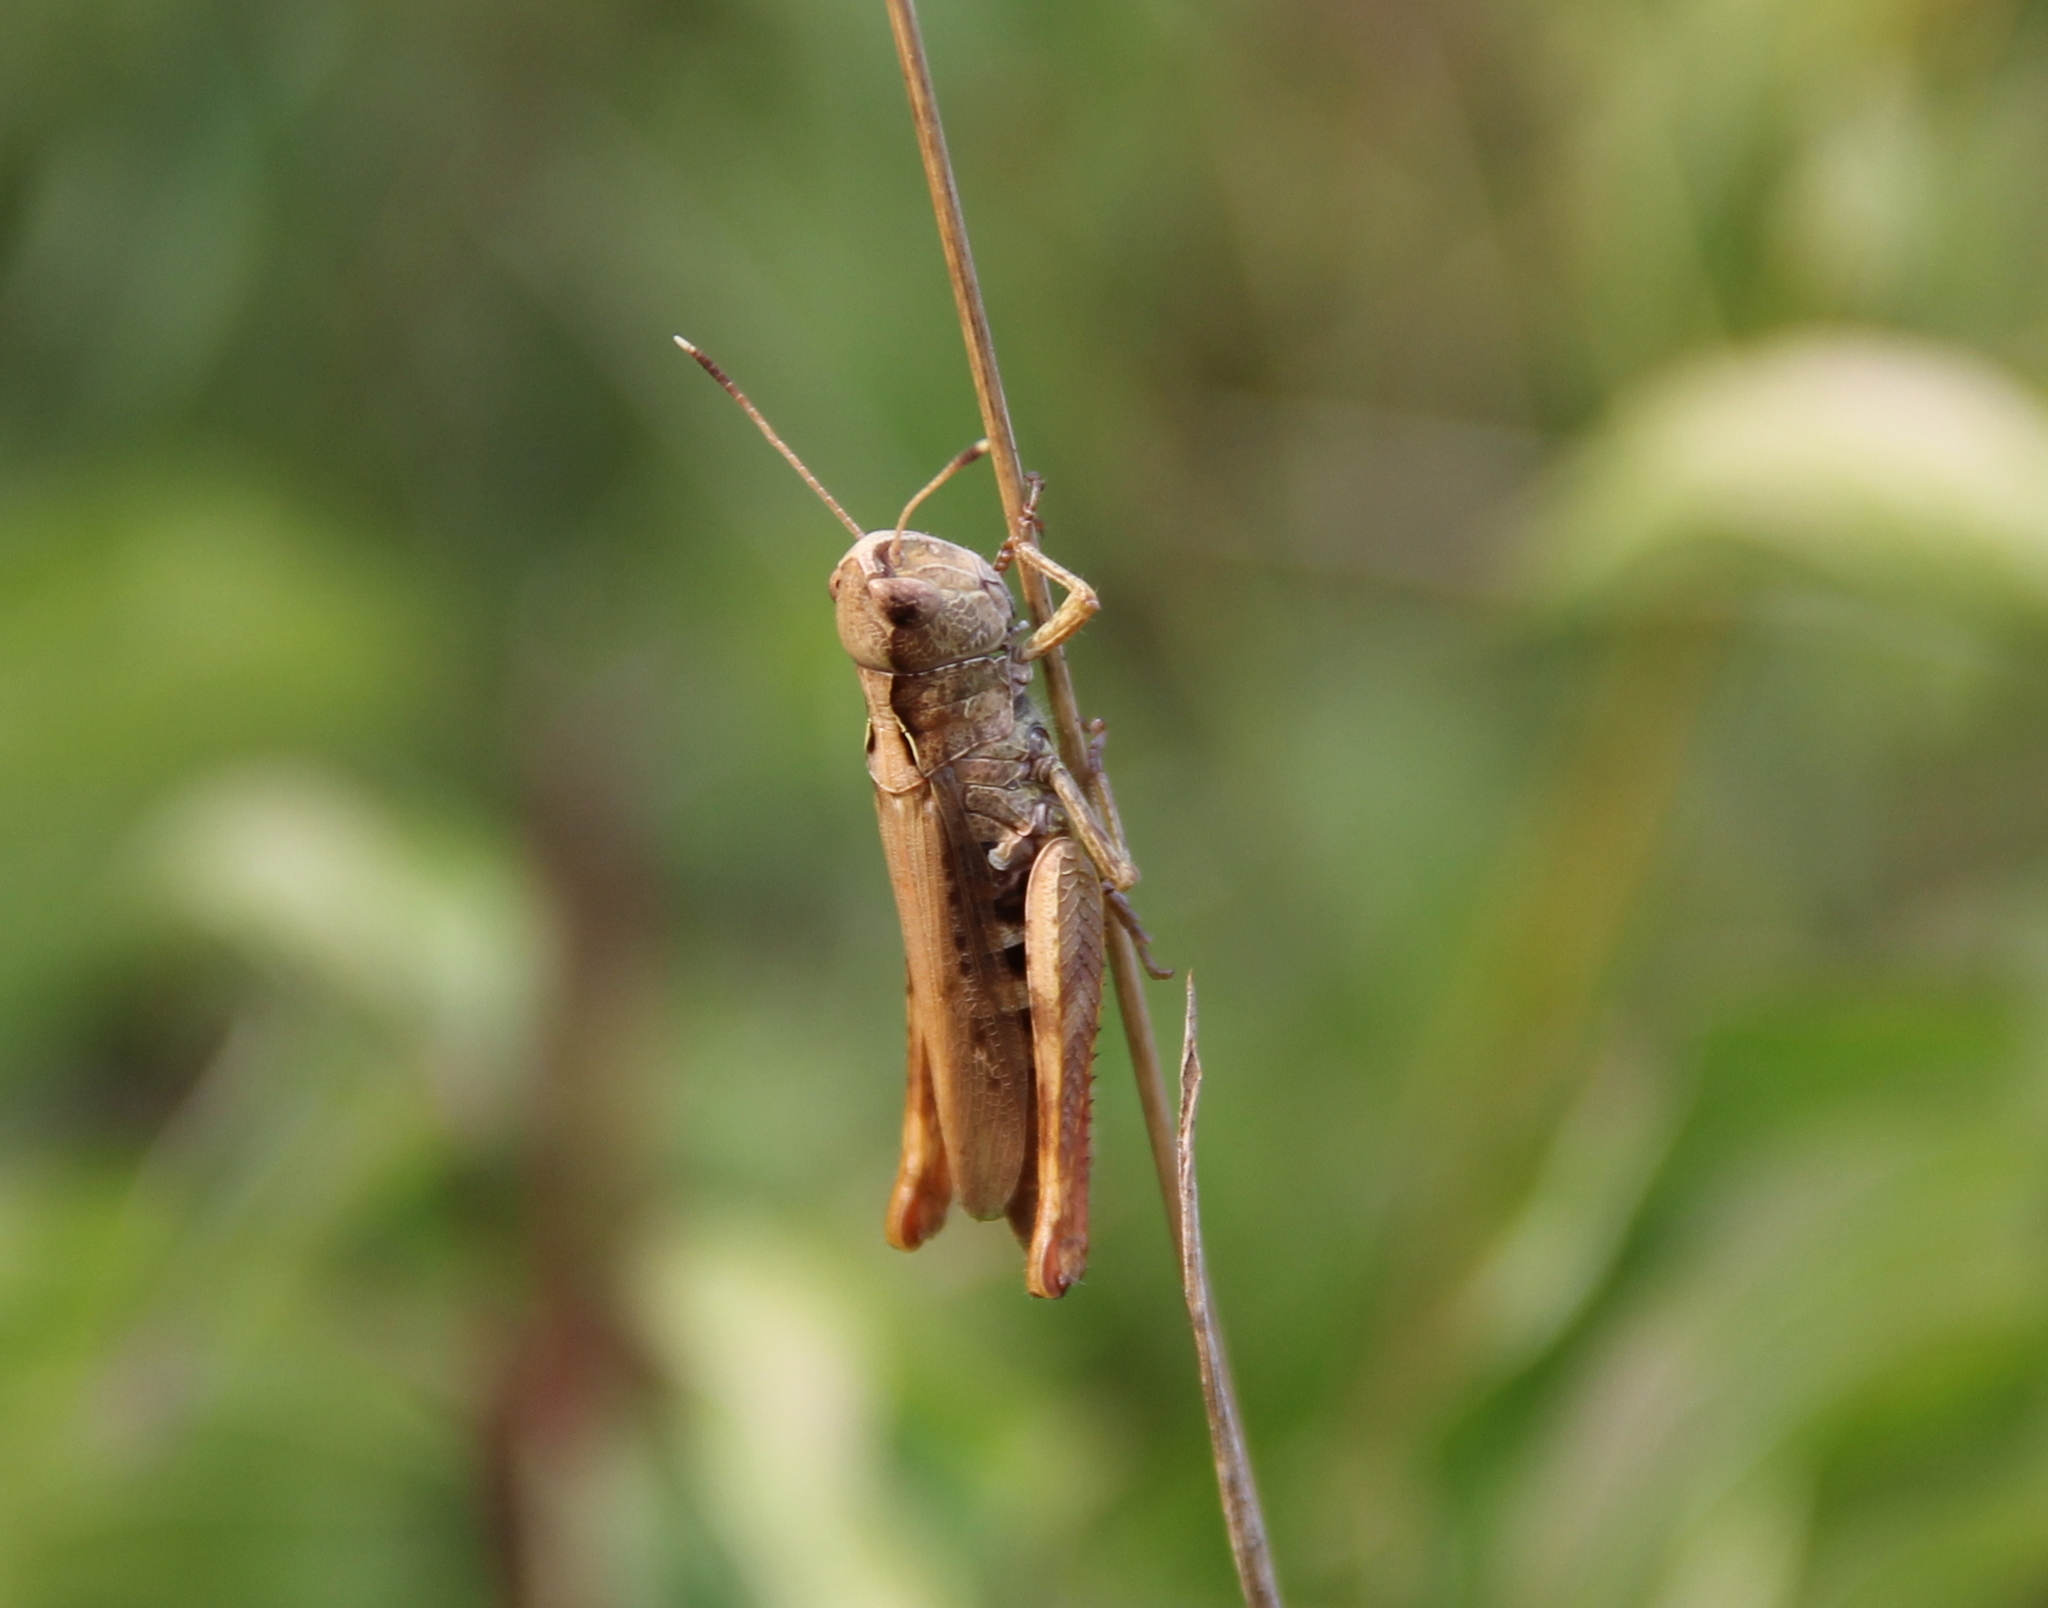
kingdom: Animalia
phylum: Arthropoda
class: Insecta
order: Orthoptera
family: Acrididae
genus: Gomphocerippus
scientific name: Gomphocerippus rufus
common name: Rufous grasshopper
